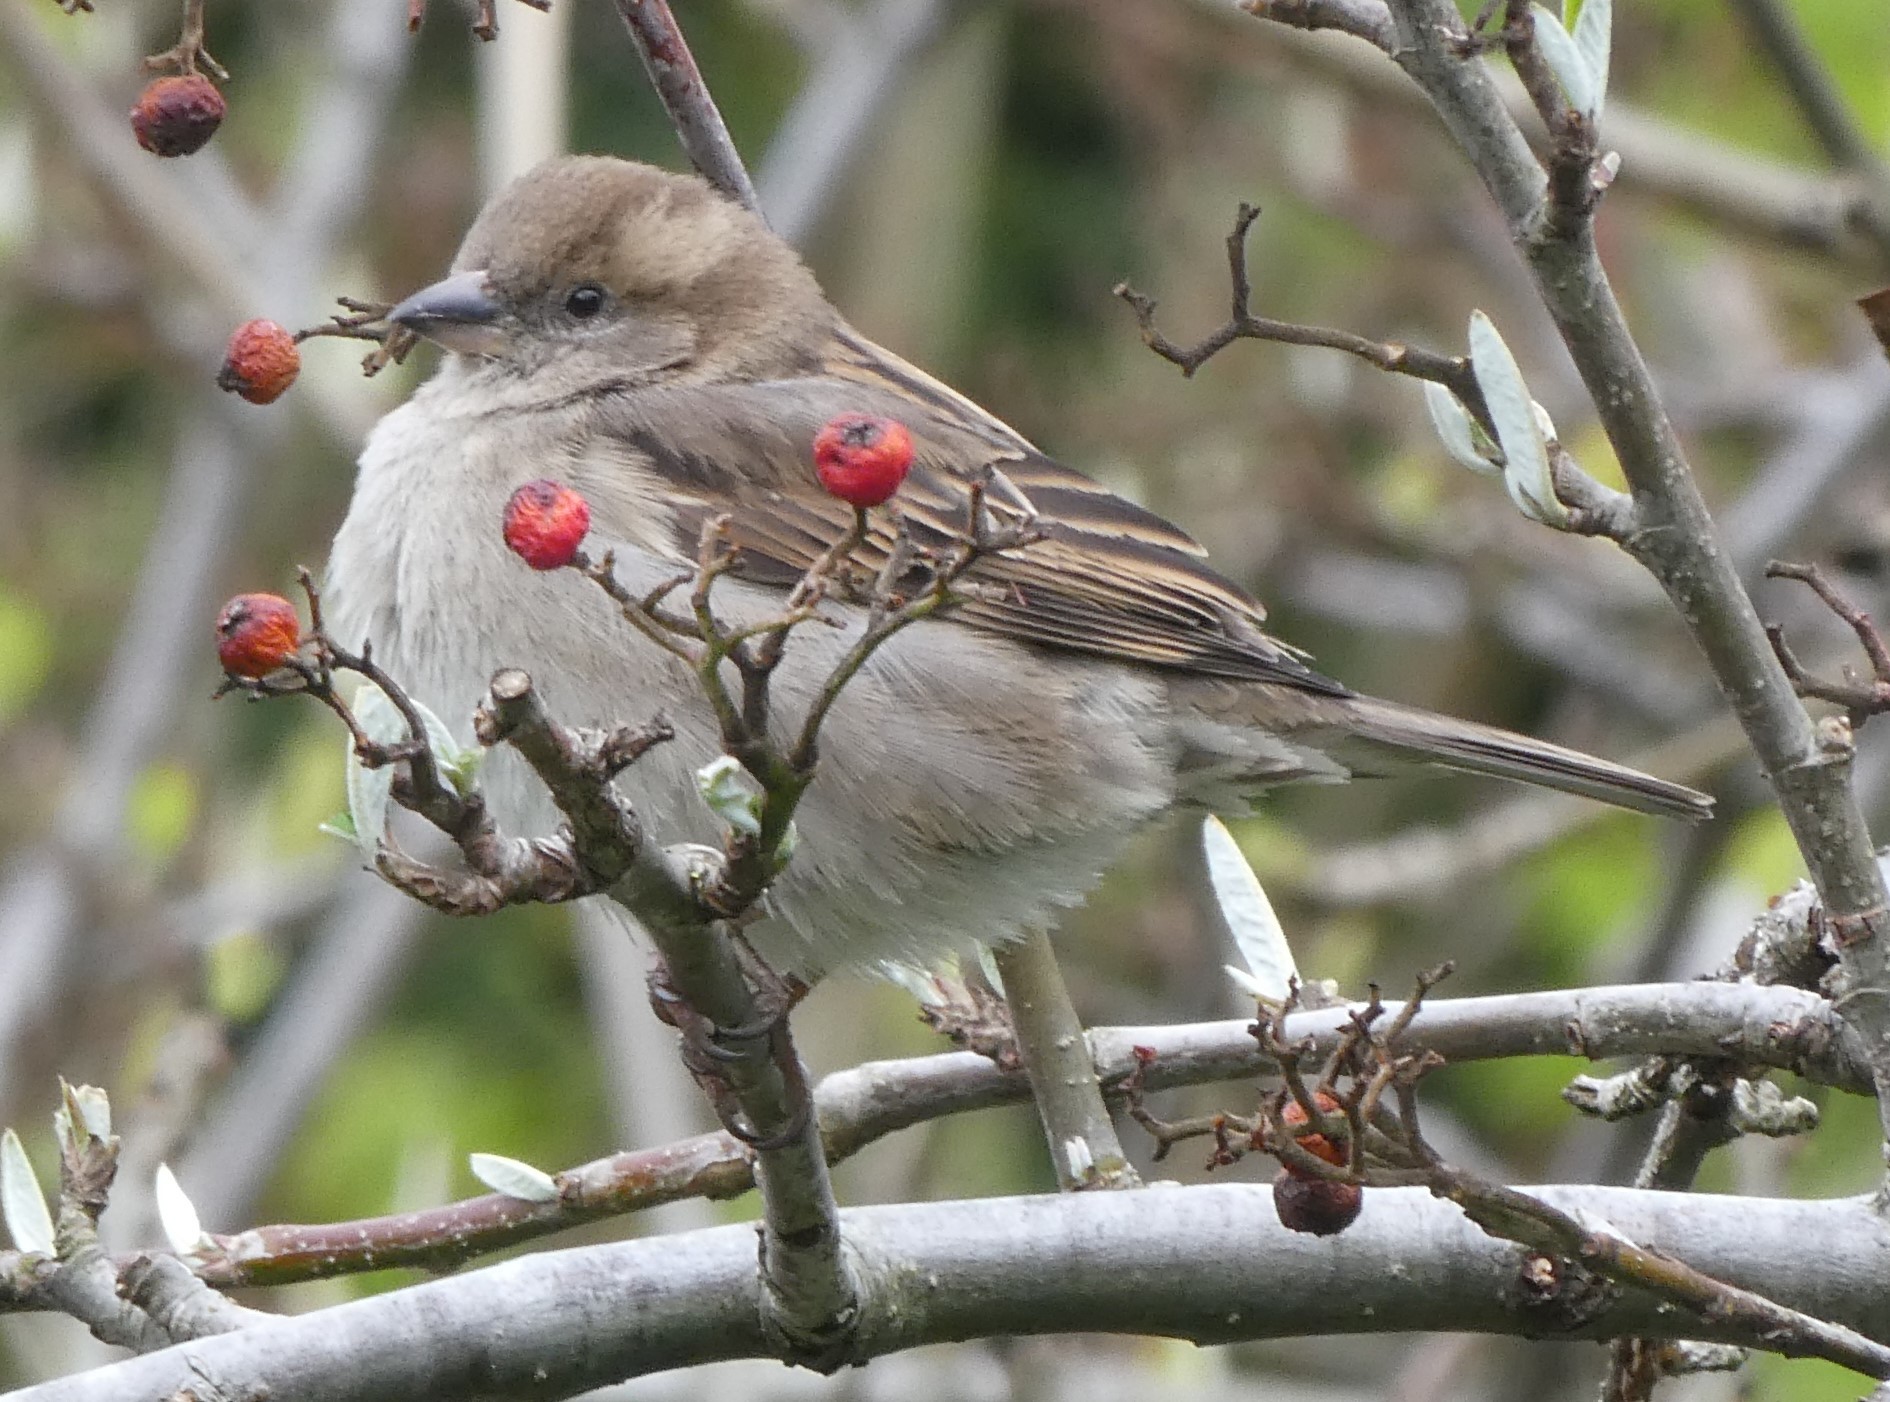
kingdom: Animalia
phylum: Chordata
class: Aves
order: Passeriformes
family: Passeridae
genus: Passer
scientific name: Passer domesticus
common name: House sparrow
